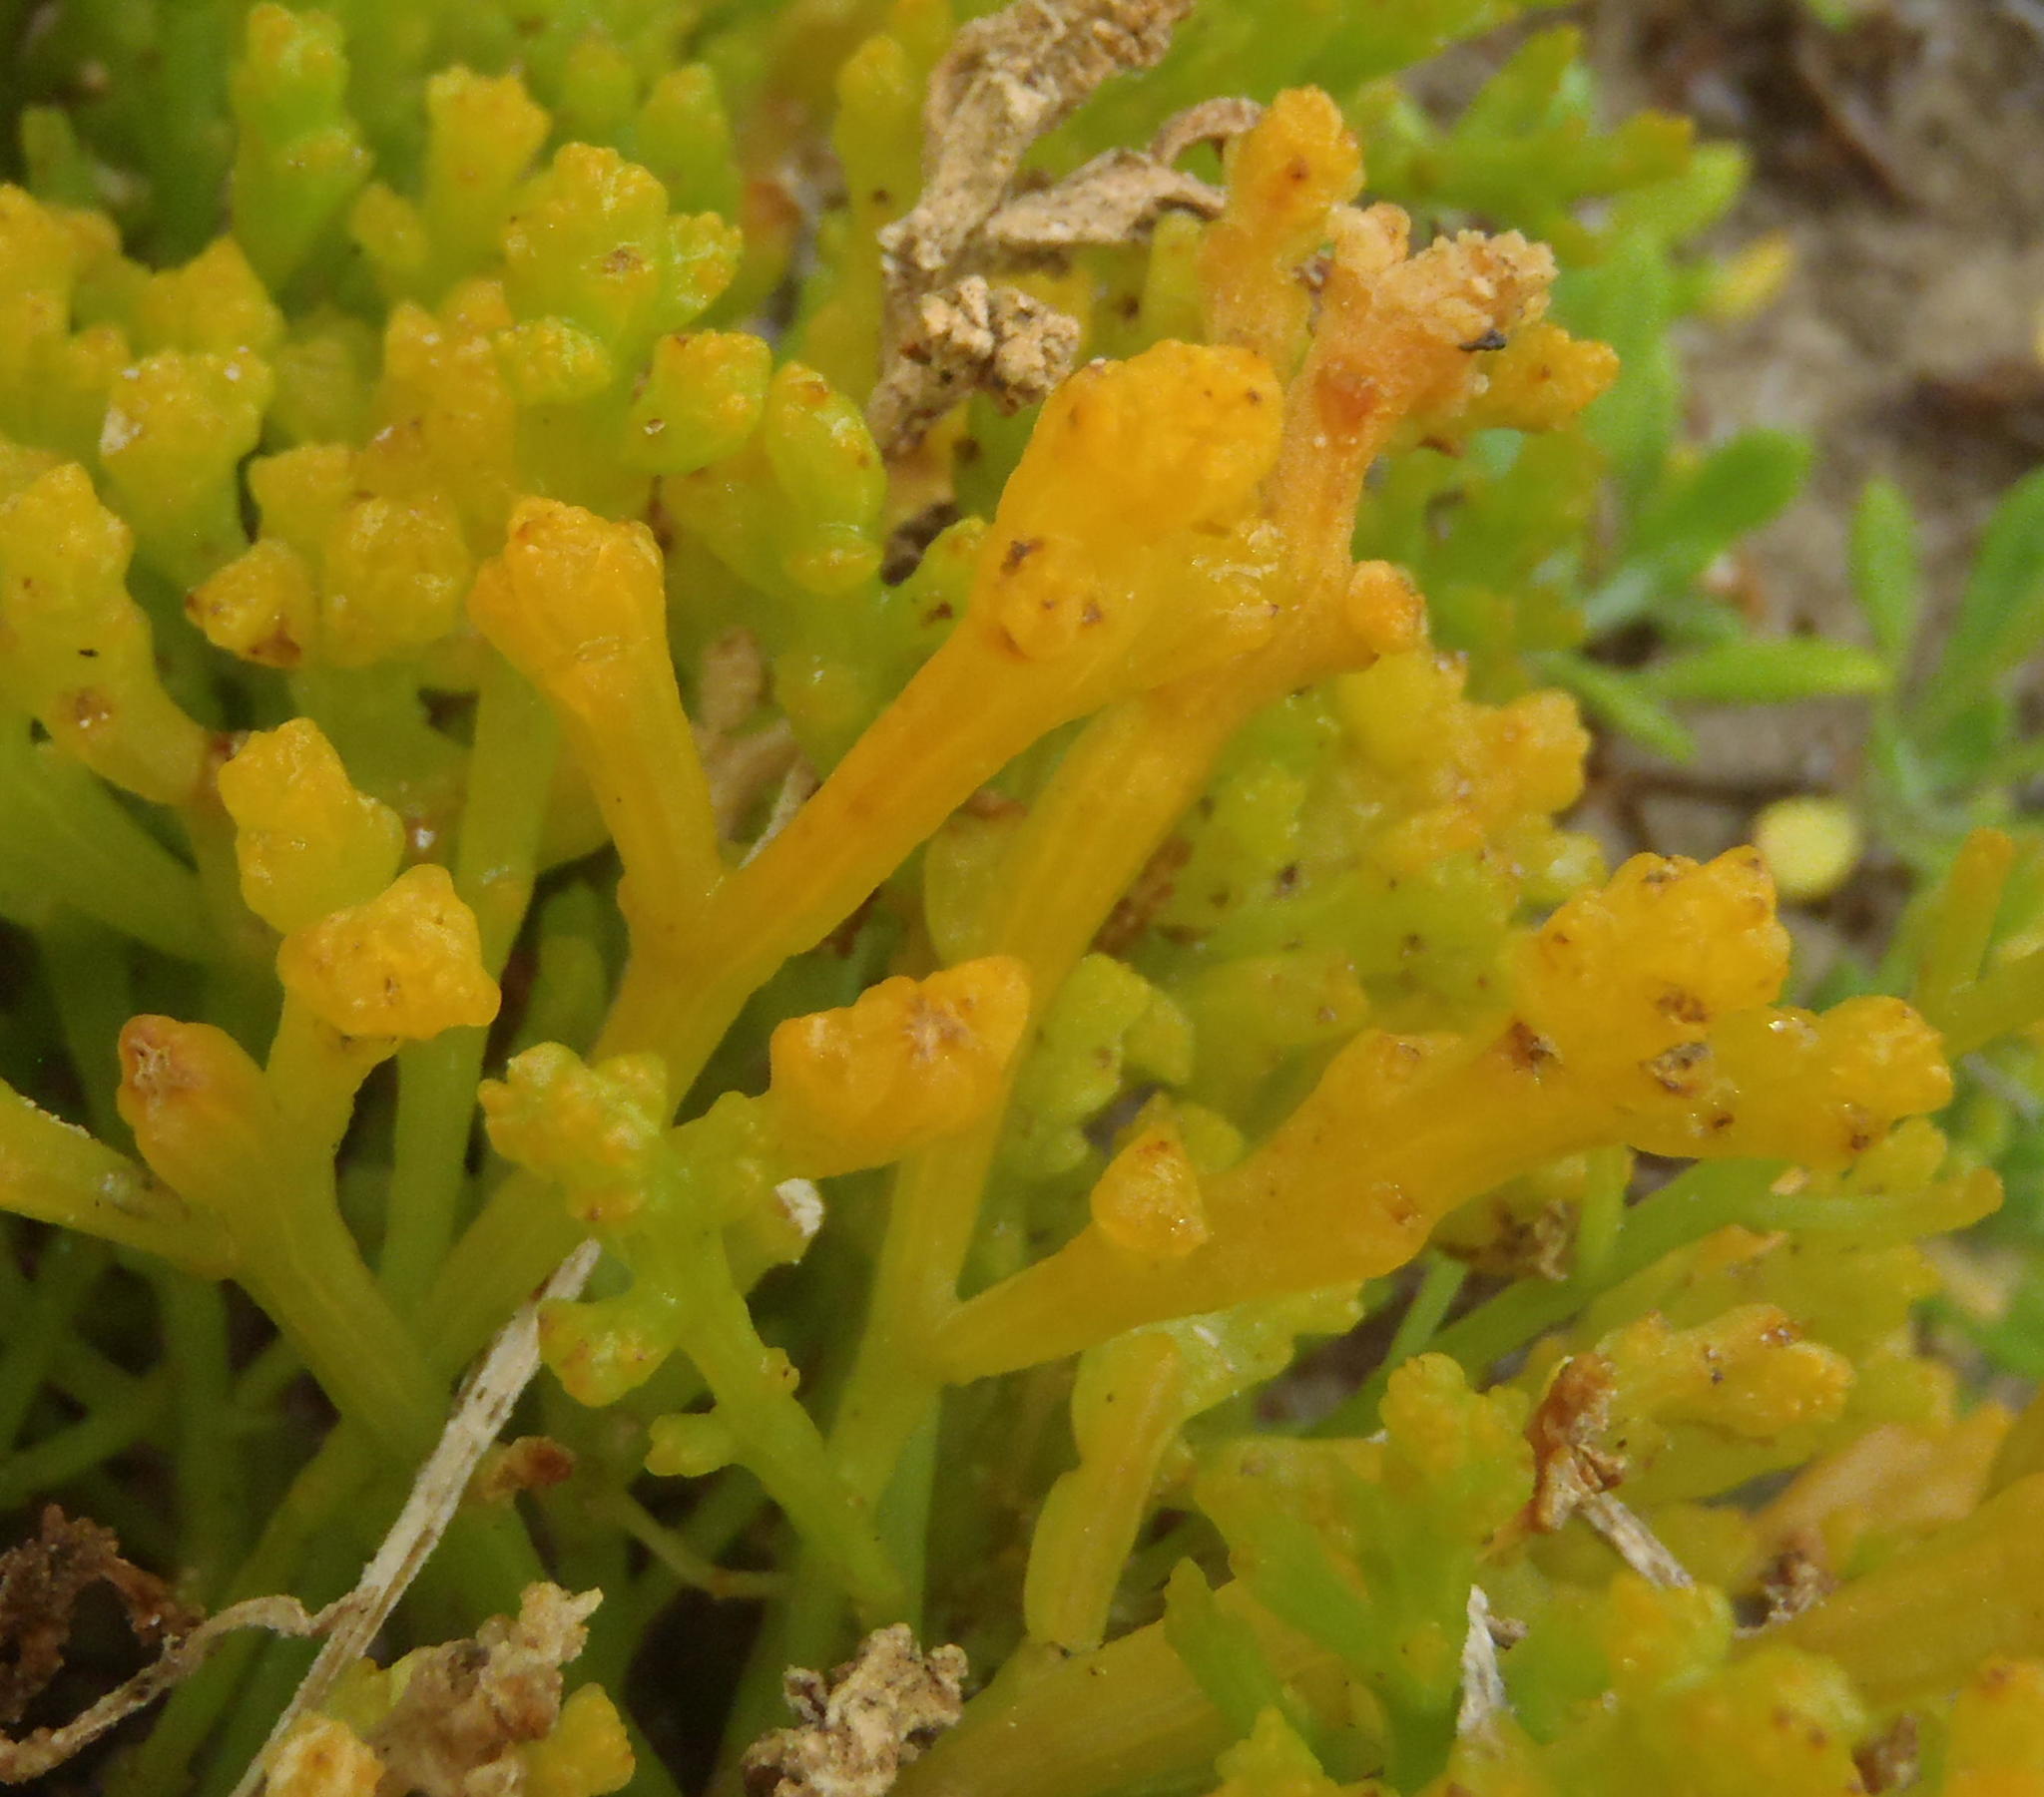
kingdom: Plantae
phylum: Tracheophyta
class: Magnoliopsida
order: Santalales
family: Thesiaceae
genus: Thesium
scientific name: Thesium fragile
